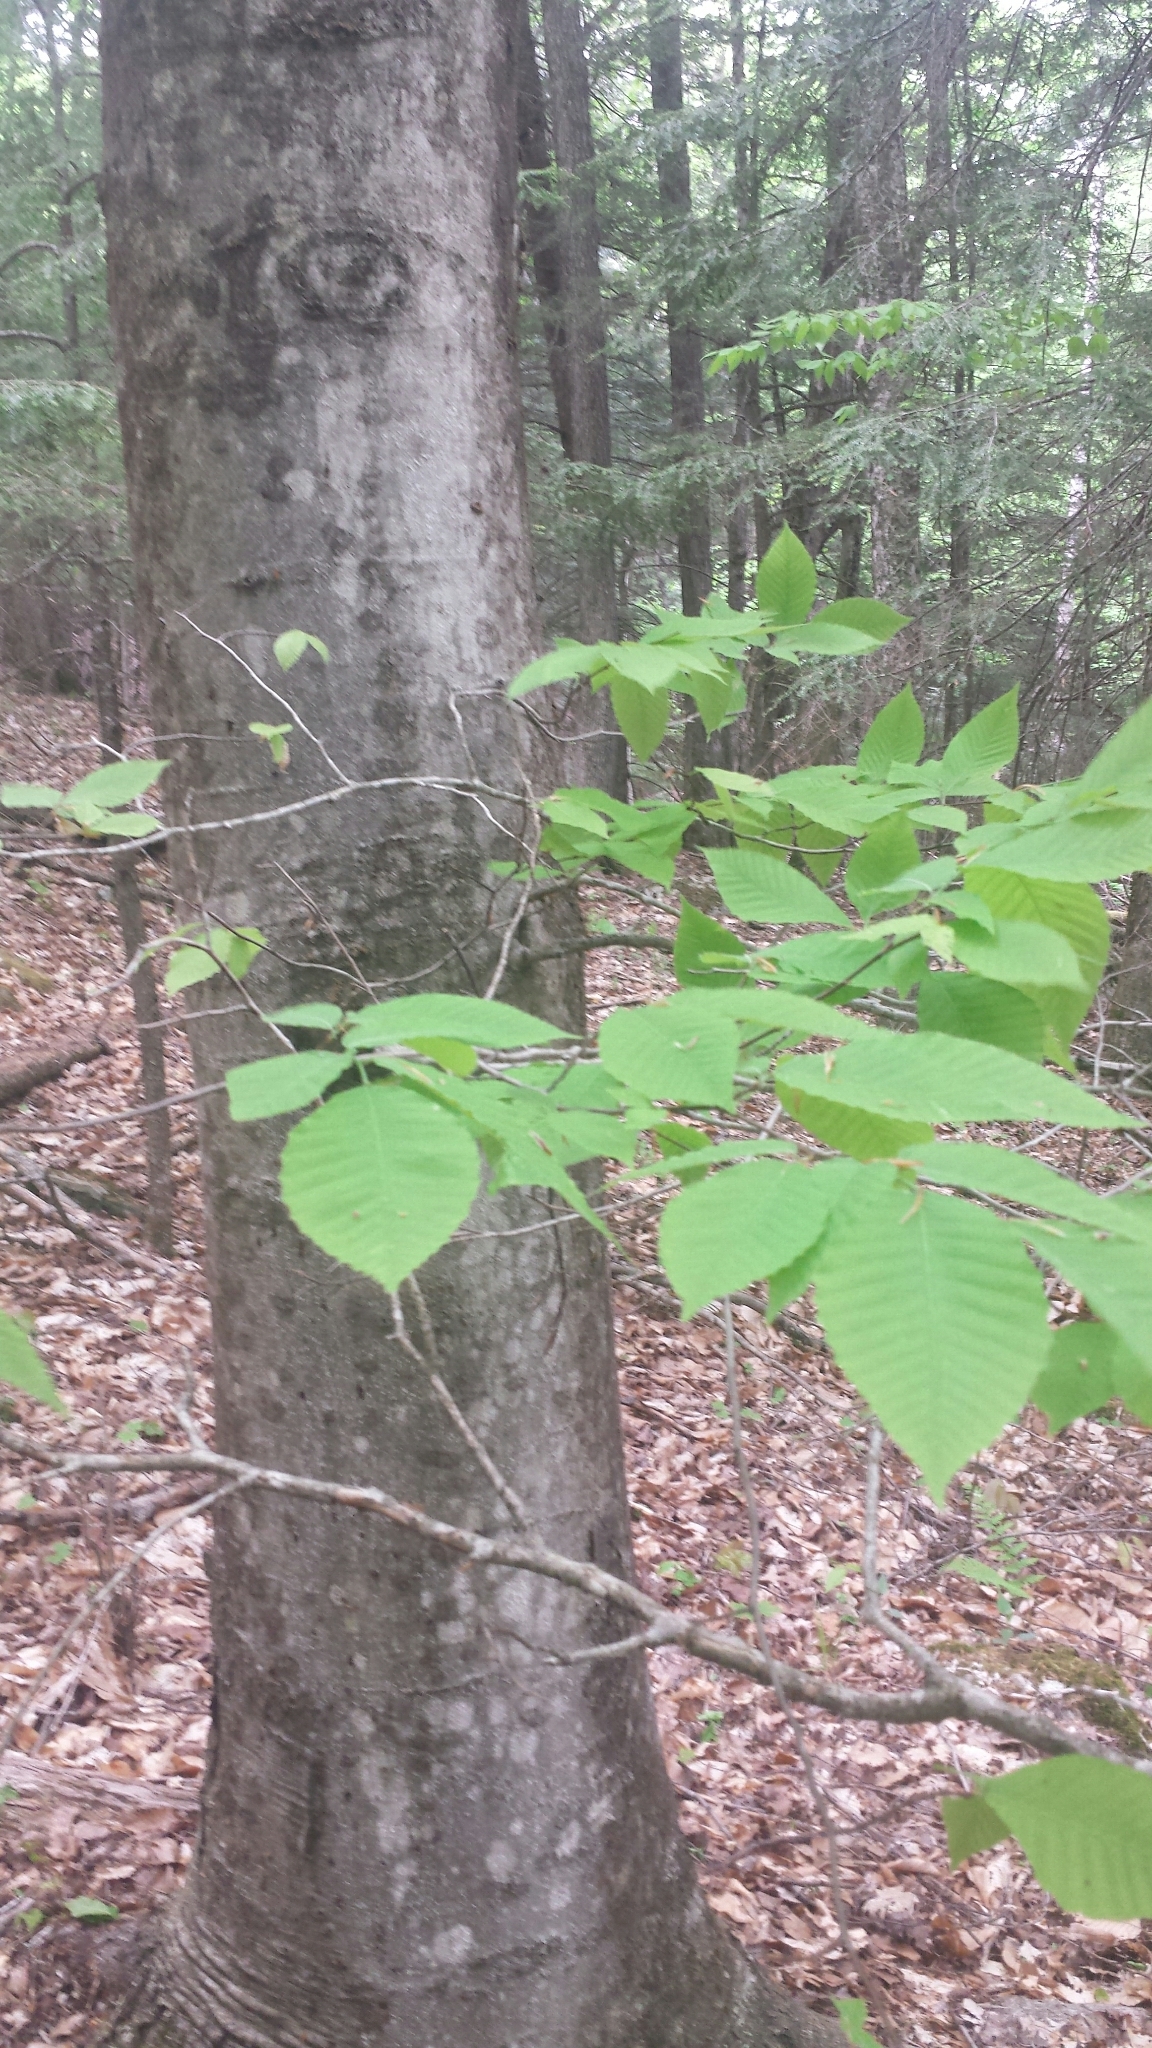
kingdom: Plantae
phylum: Tracheophyta
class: Magnoliopsida
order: Fagales
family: Fagaceae
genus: Fagus
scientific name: Fagus grandifolia
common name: American beech
